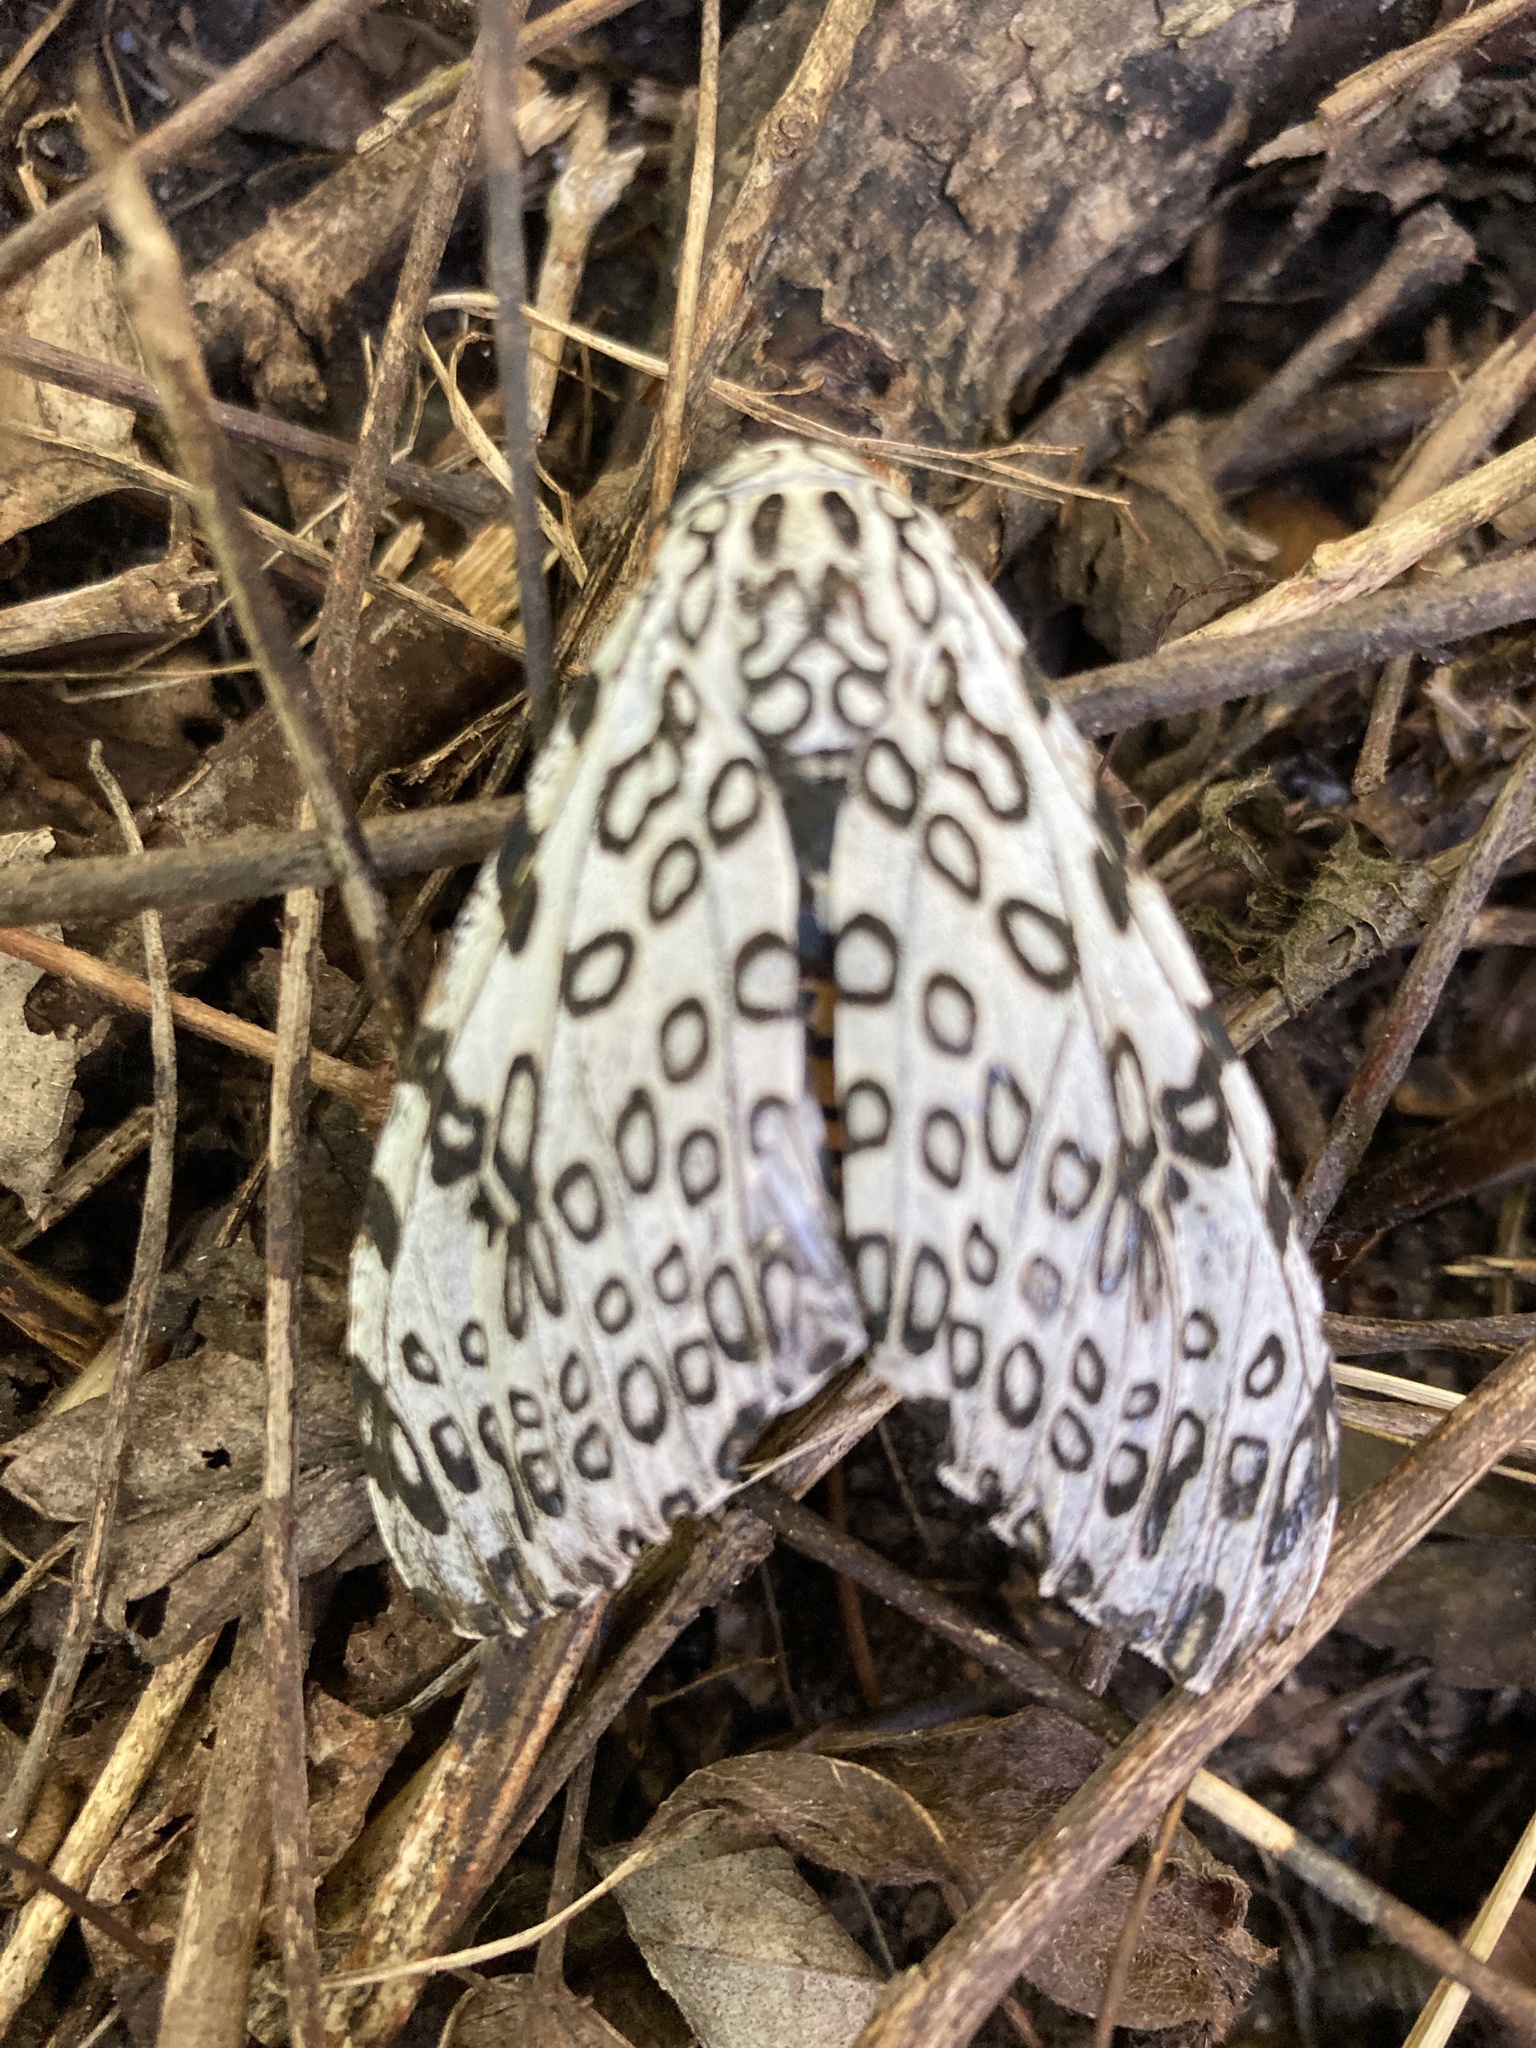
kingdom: Animalia
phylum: Arthropoda
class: Insecta
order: Lepidoptera
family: Erebidae
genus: Hypercompe
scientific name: Hypercompe scribonia
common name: Giant leopard moth
